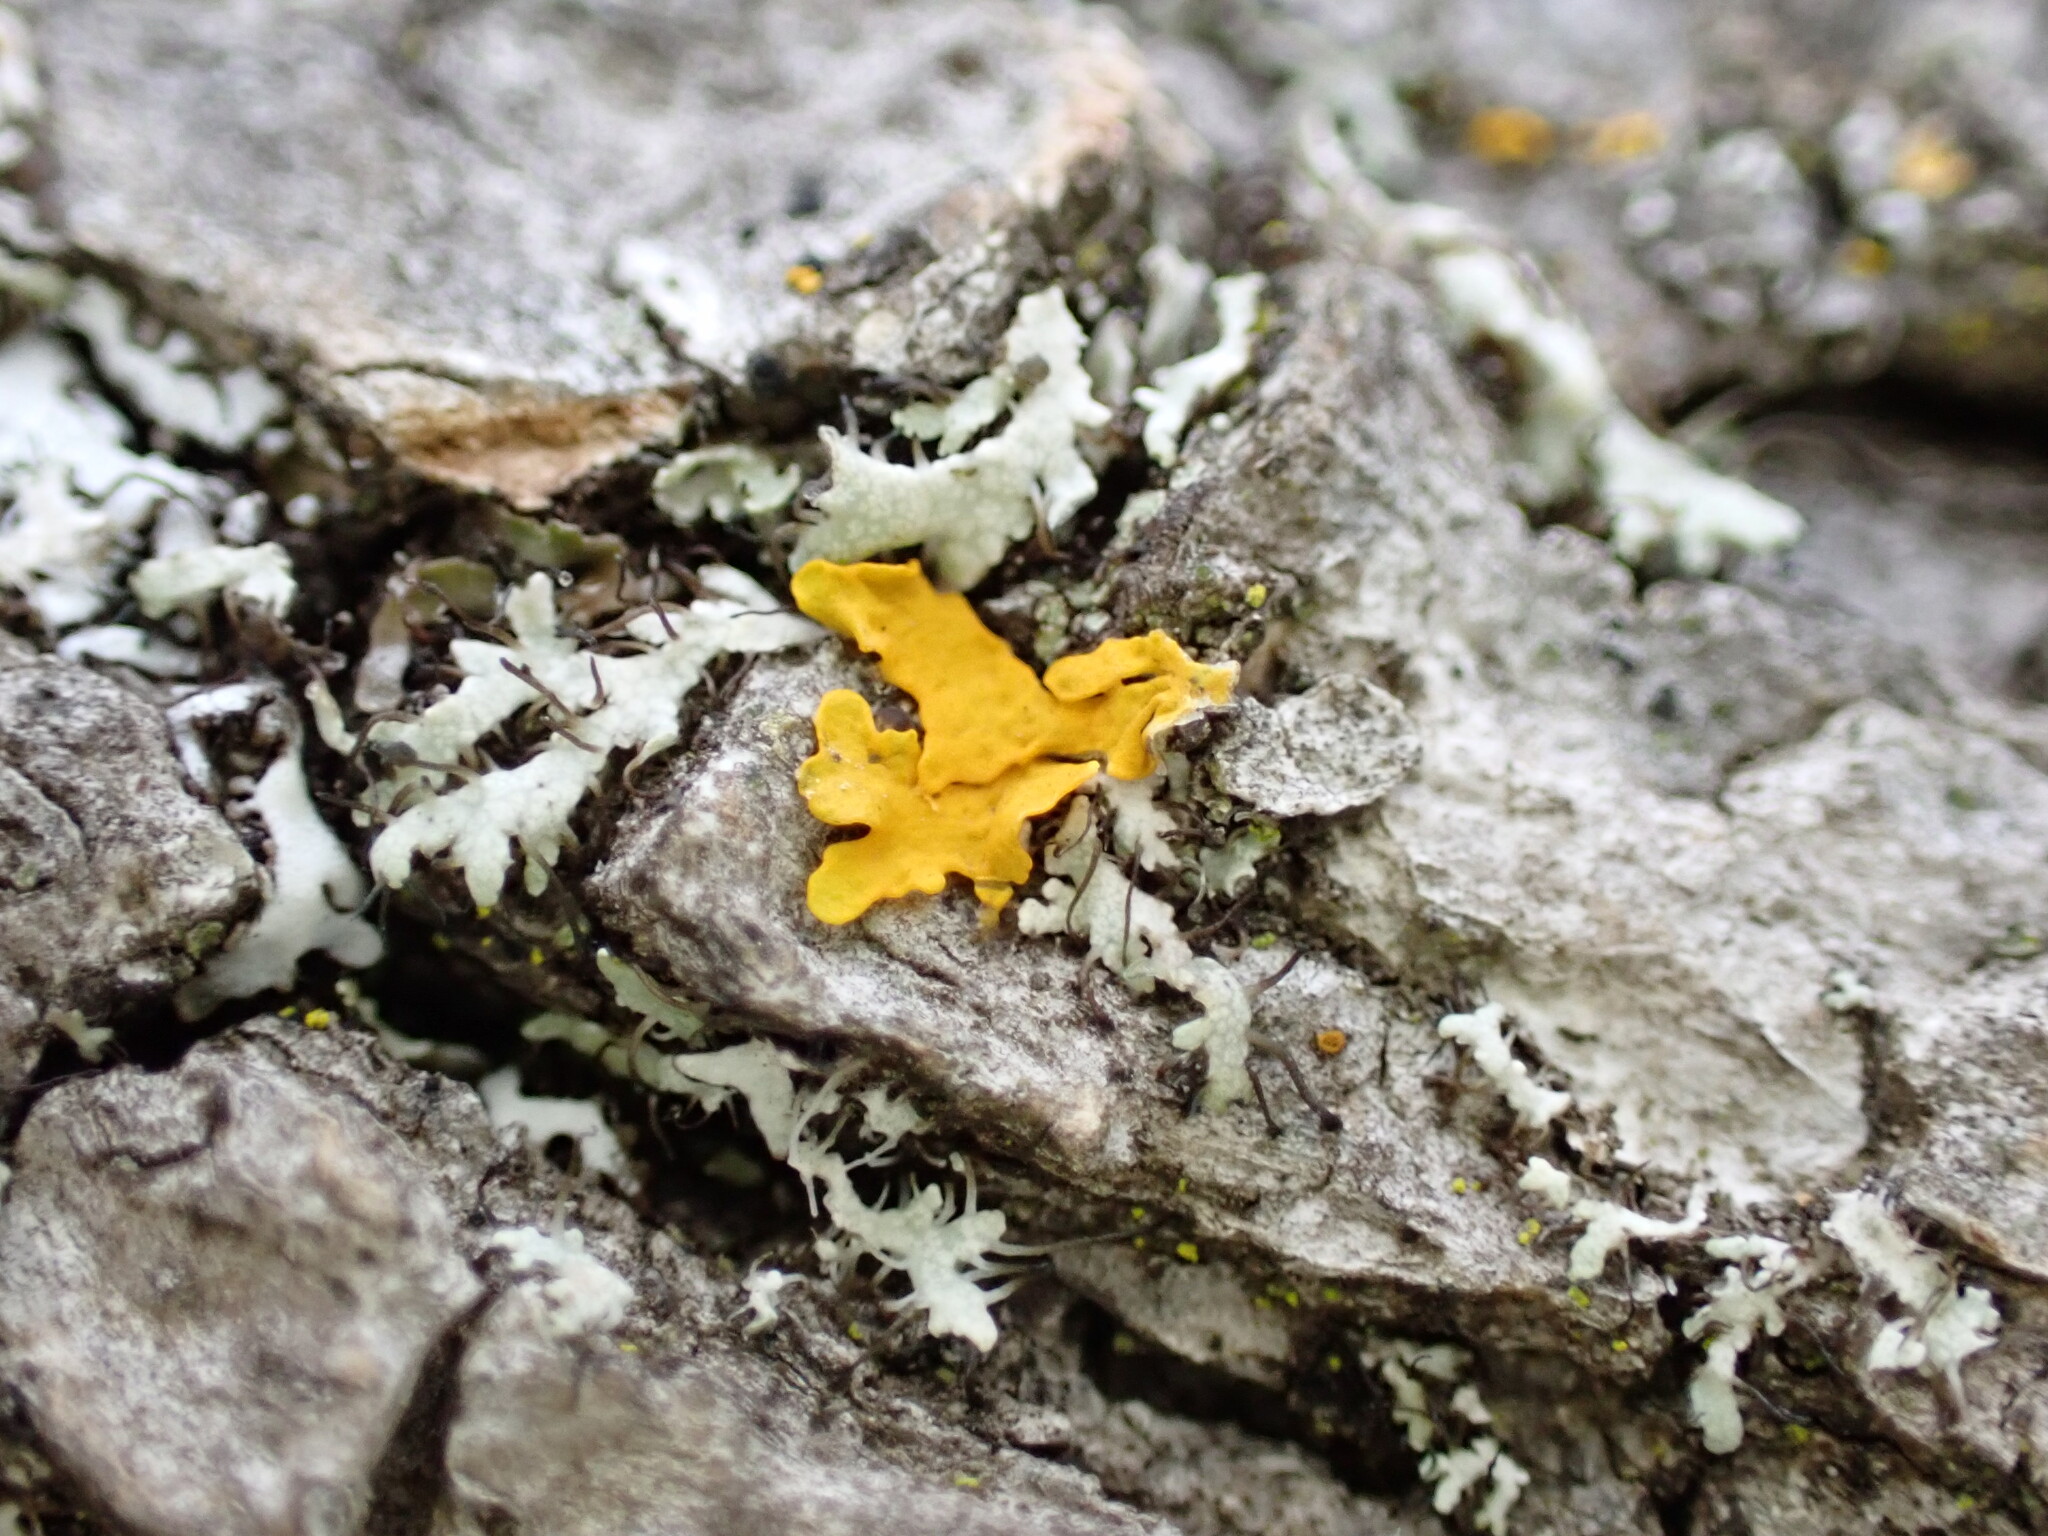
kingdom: Fungi
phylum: Ascomycota
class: Lecanoromycetes
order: Teloschistales
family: Teloschistaceae
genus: Oxneria
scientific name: Oxneria fallax
